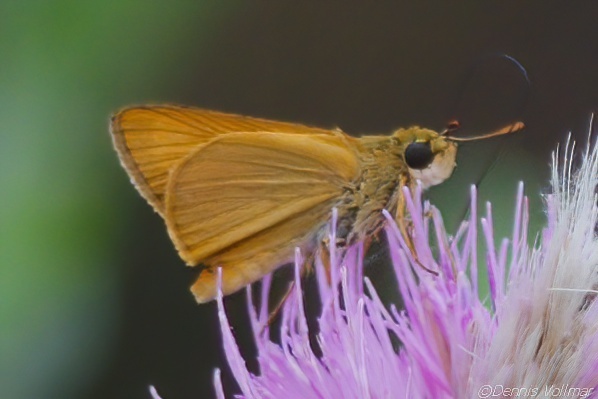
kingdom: Animalia
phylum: Arthropoda
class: Insecta
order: Lepidoptera
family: Hesperiidae
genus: Atrytone
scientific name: Atrytone delaware
